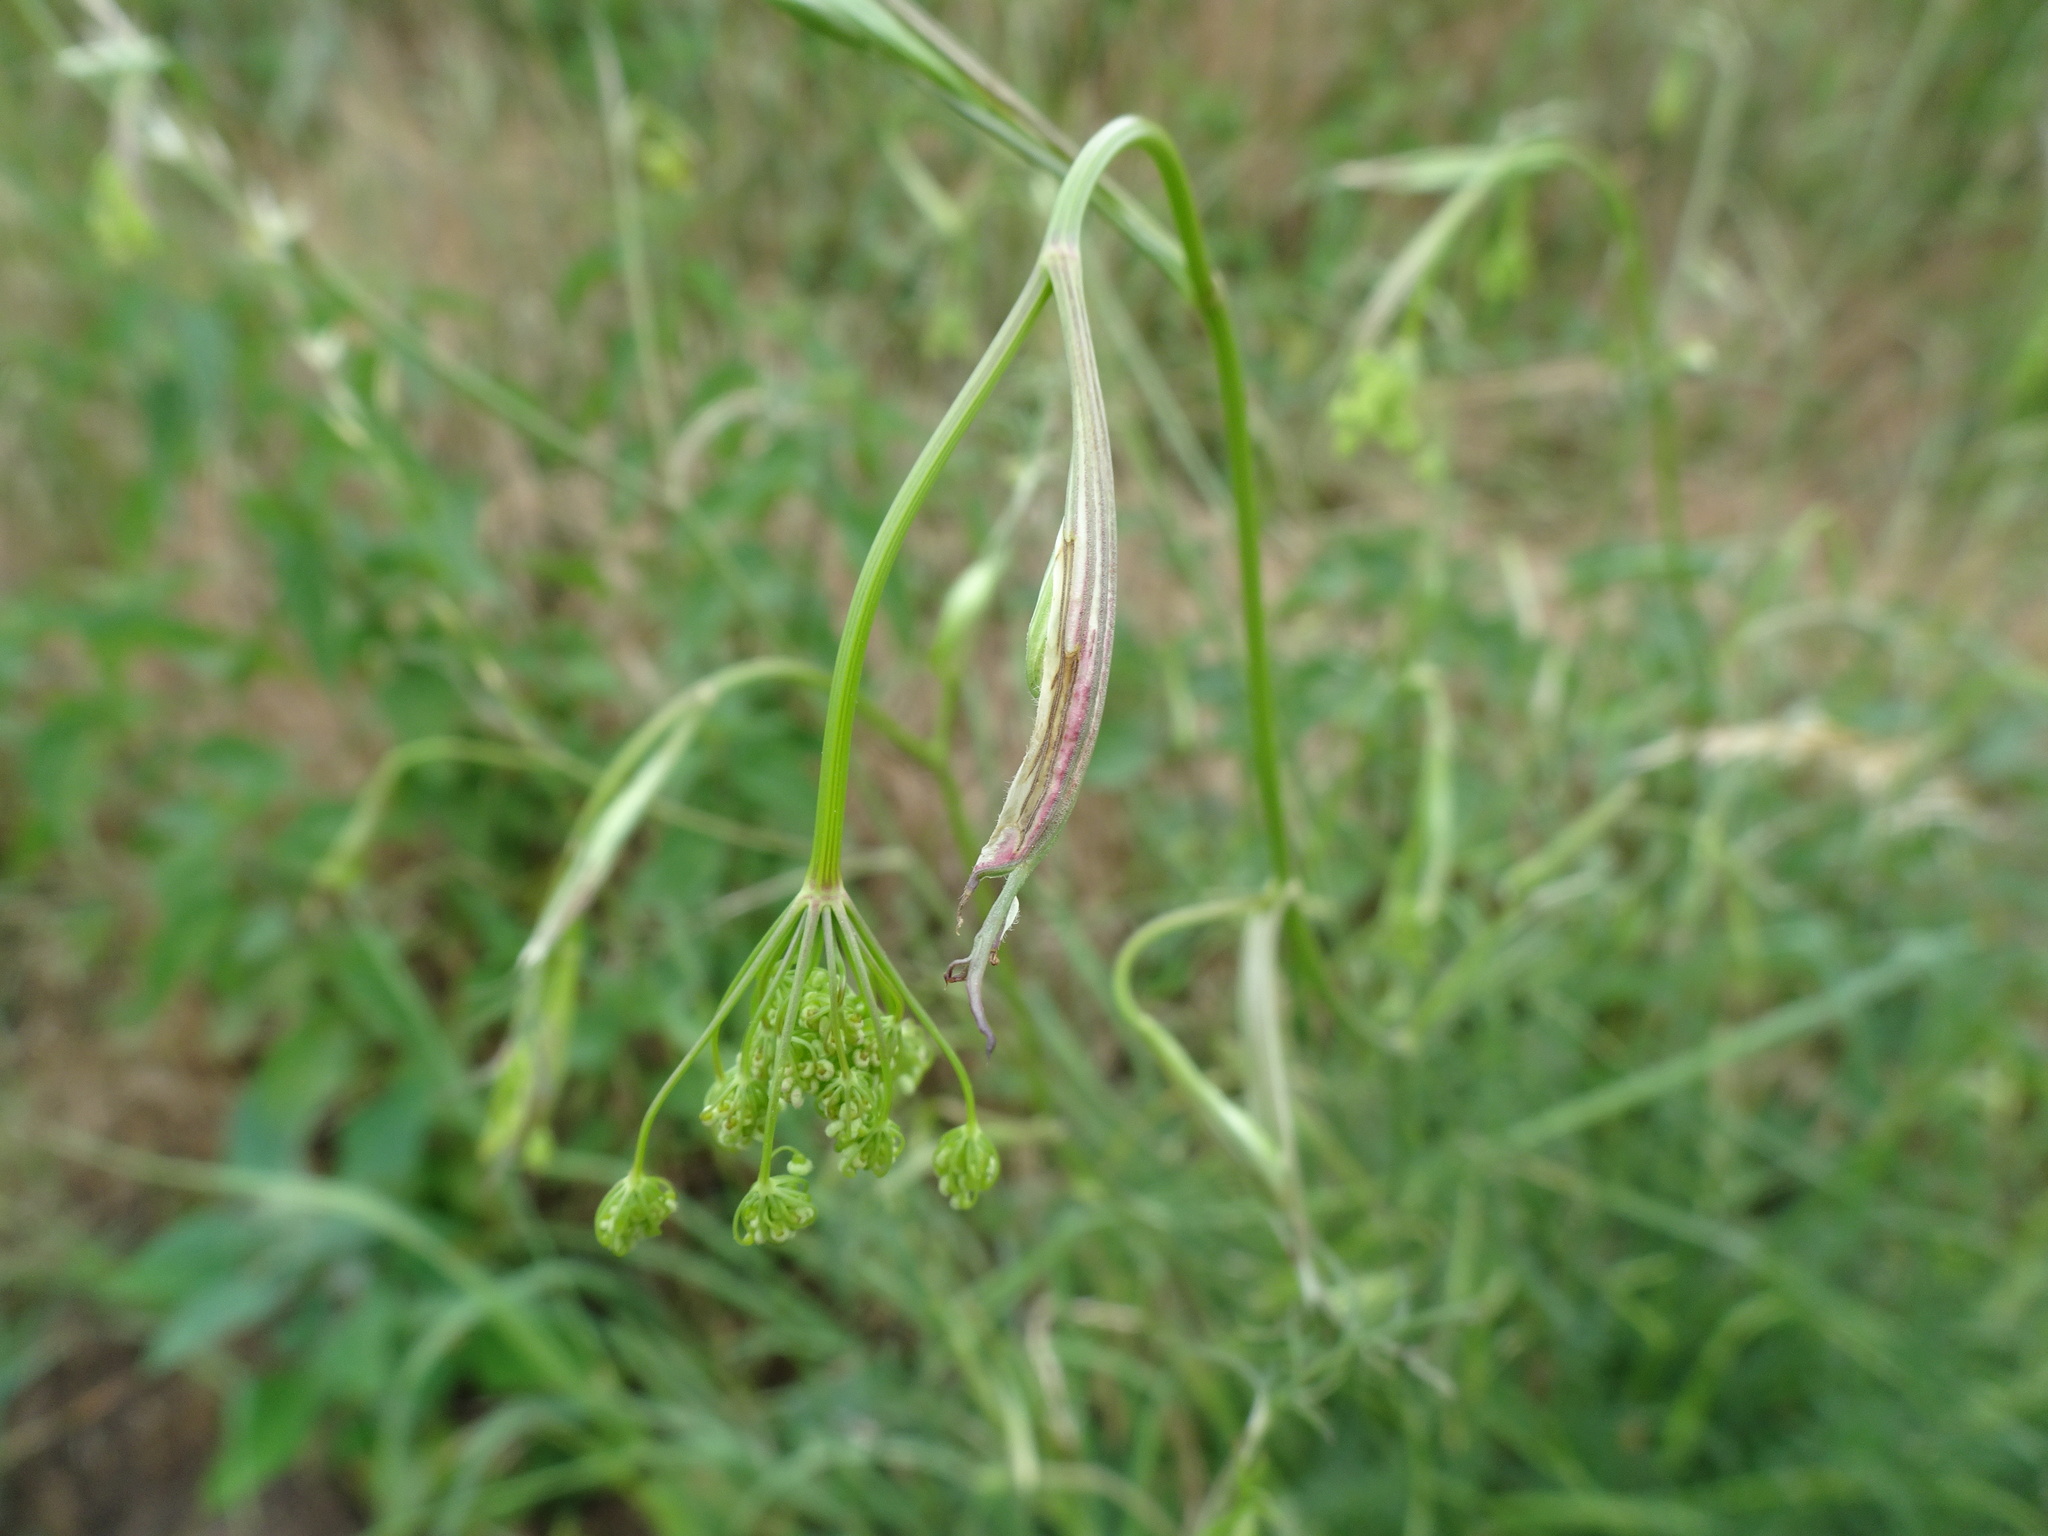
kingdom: Plantae
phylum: Tracheophyta
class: Magnoliopsida
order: Apiales
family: Apiaceae
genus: Pimpinella
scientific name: Pimpinella saxifraga
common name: Burnet-saxifrage
